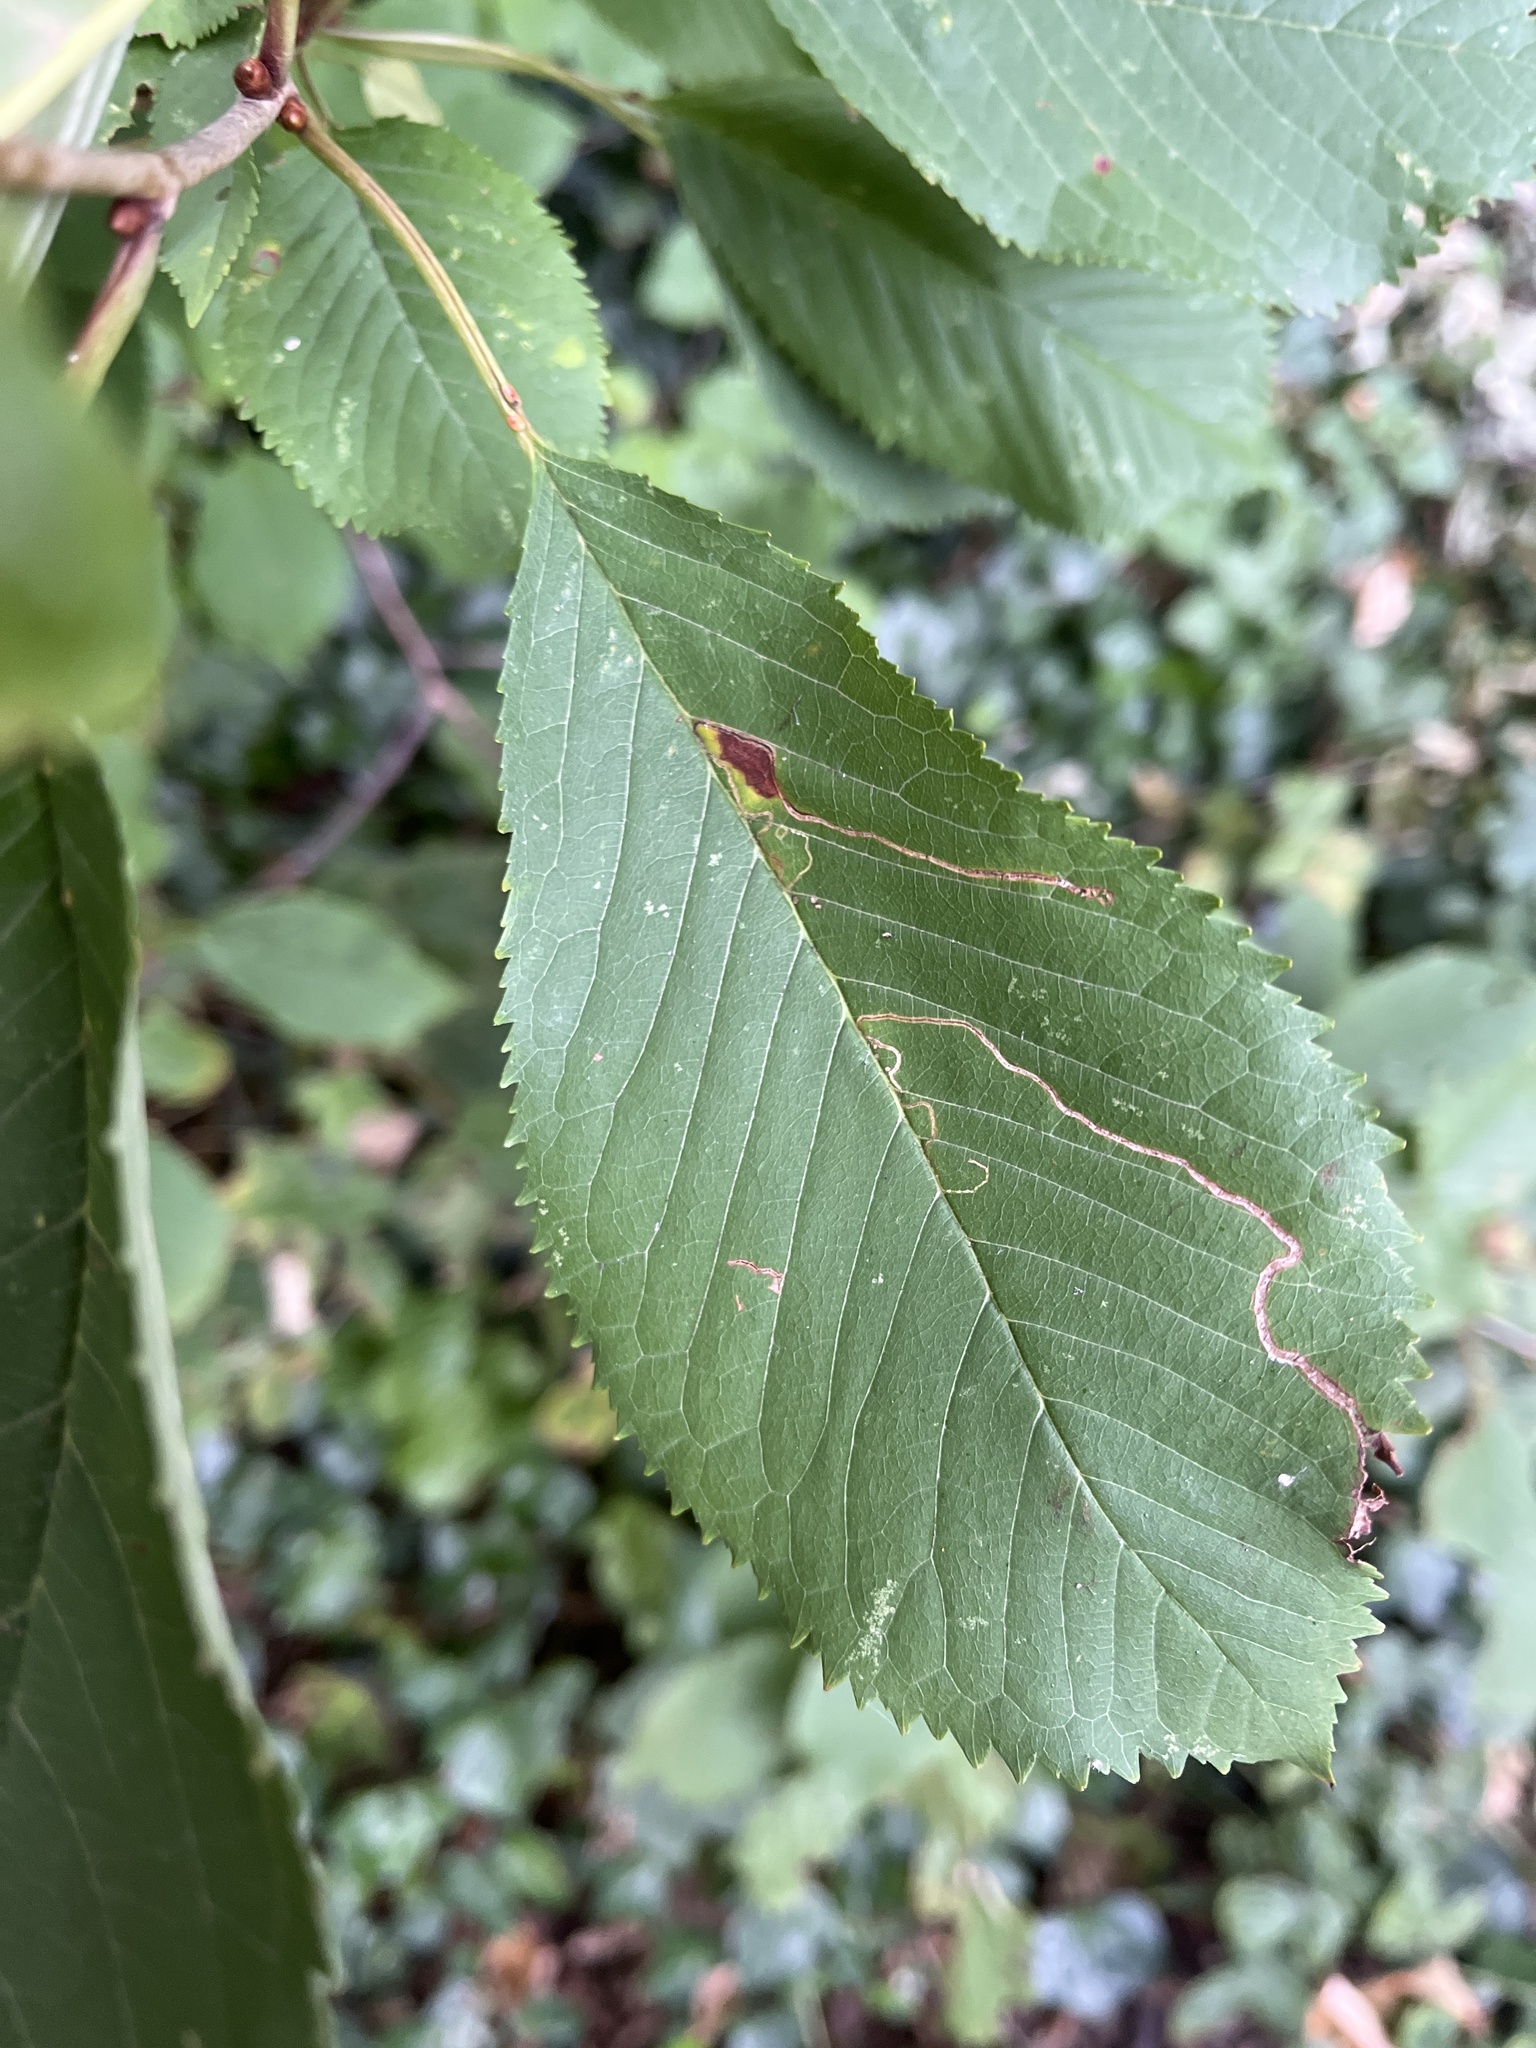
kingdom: Animalia
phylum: Arthropoda
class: Insecta
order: Lepidoptera
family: Lyonetiidae
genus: Lyonetia
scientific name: Lyonetia clerkella
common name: Apple leaf miner
